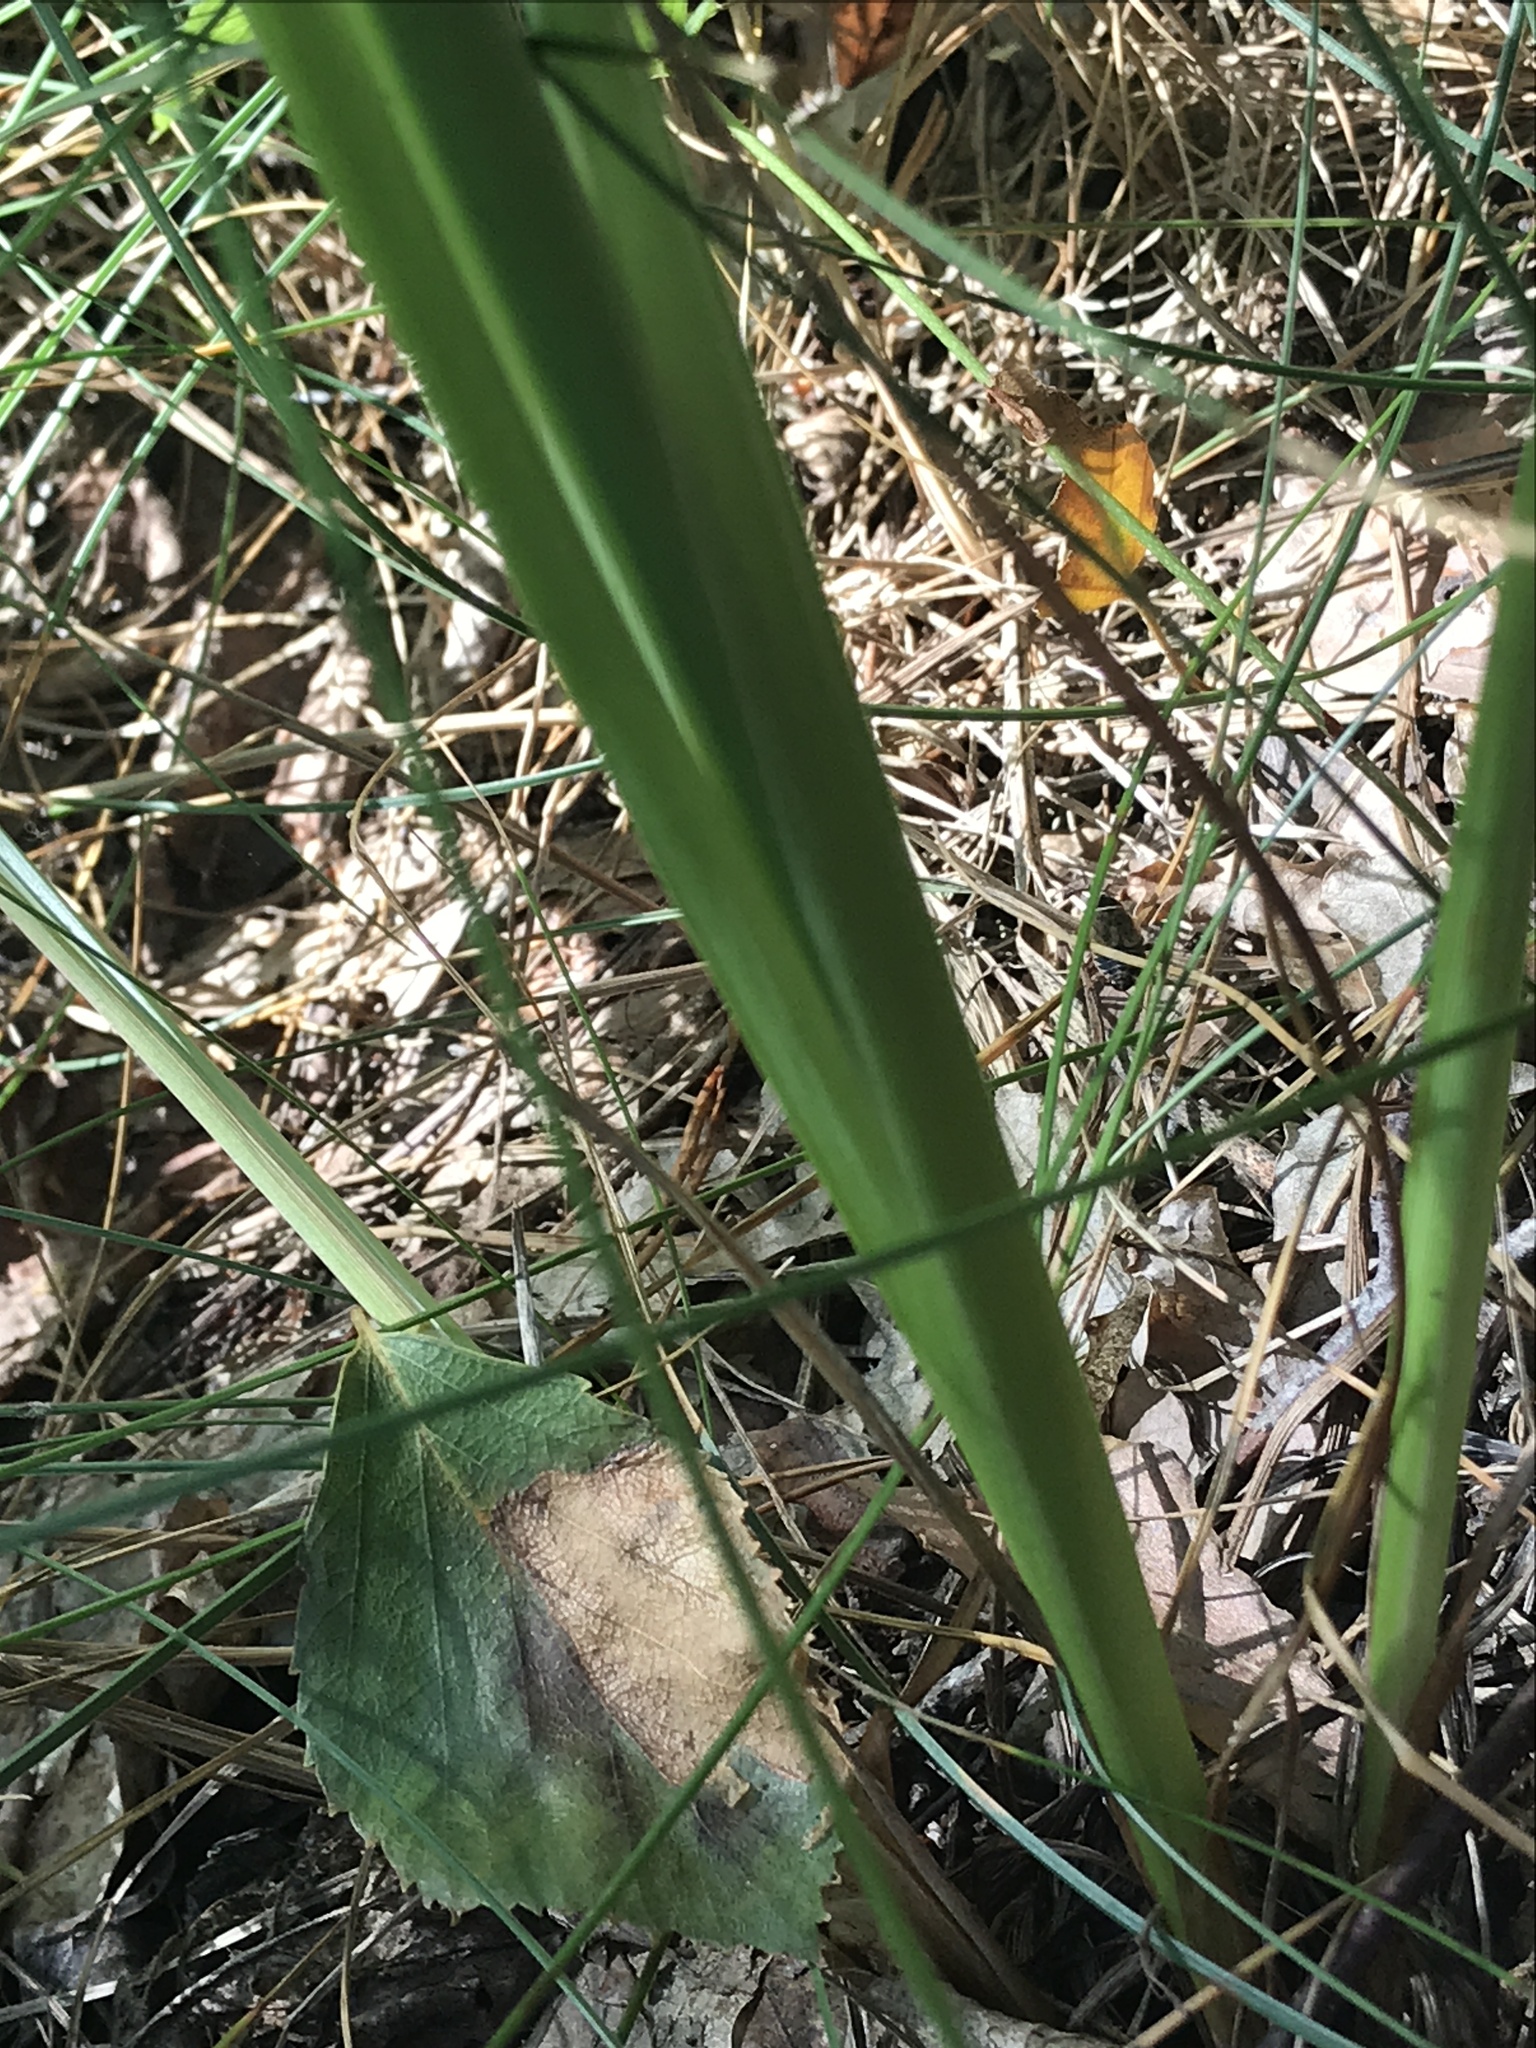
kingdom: Plantae
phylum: Tracheophyta
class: Liliopsida
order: Asparagales
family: Iridaceae
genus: Iris
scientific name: Iris sibirica
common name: Siberian iris
